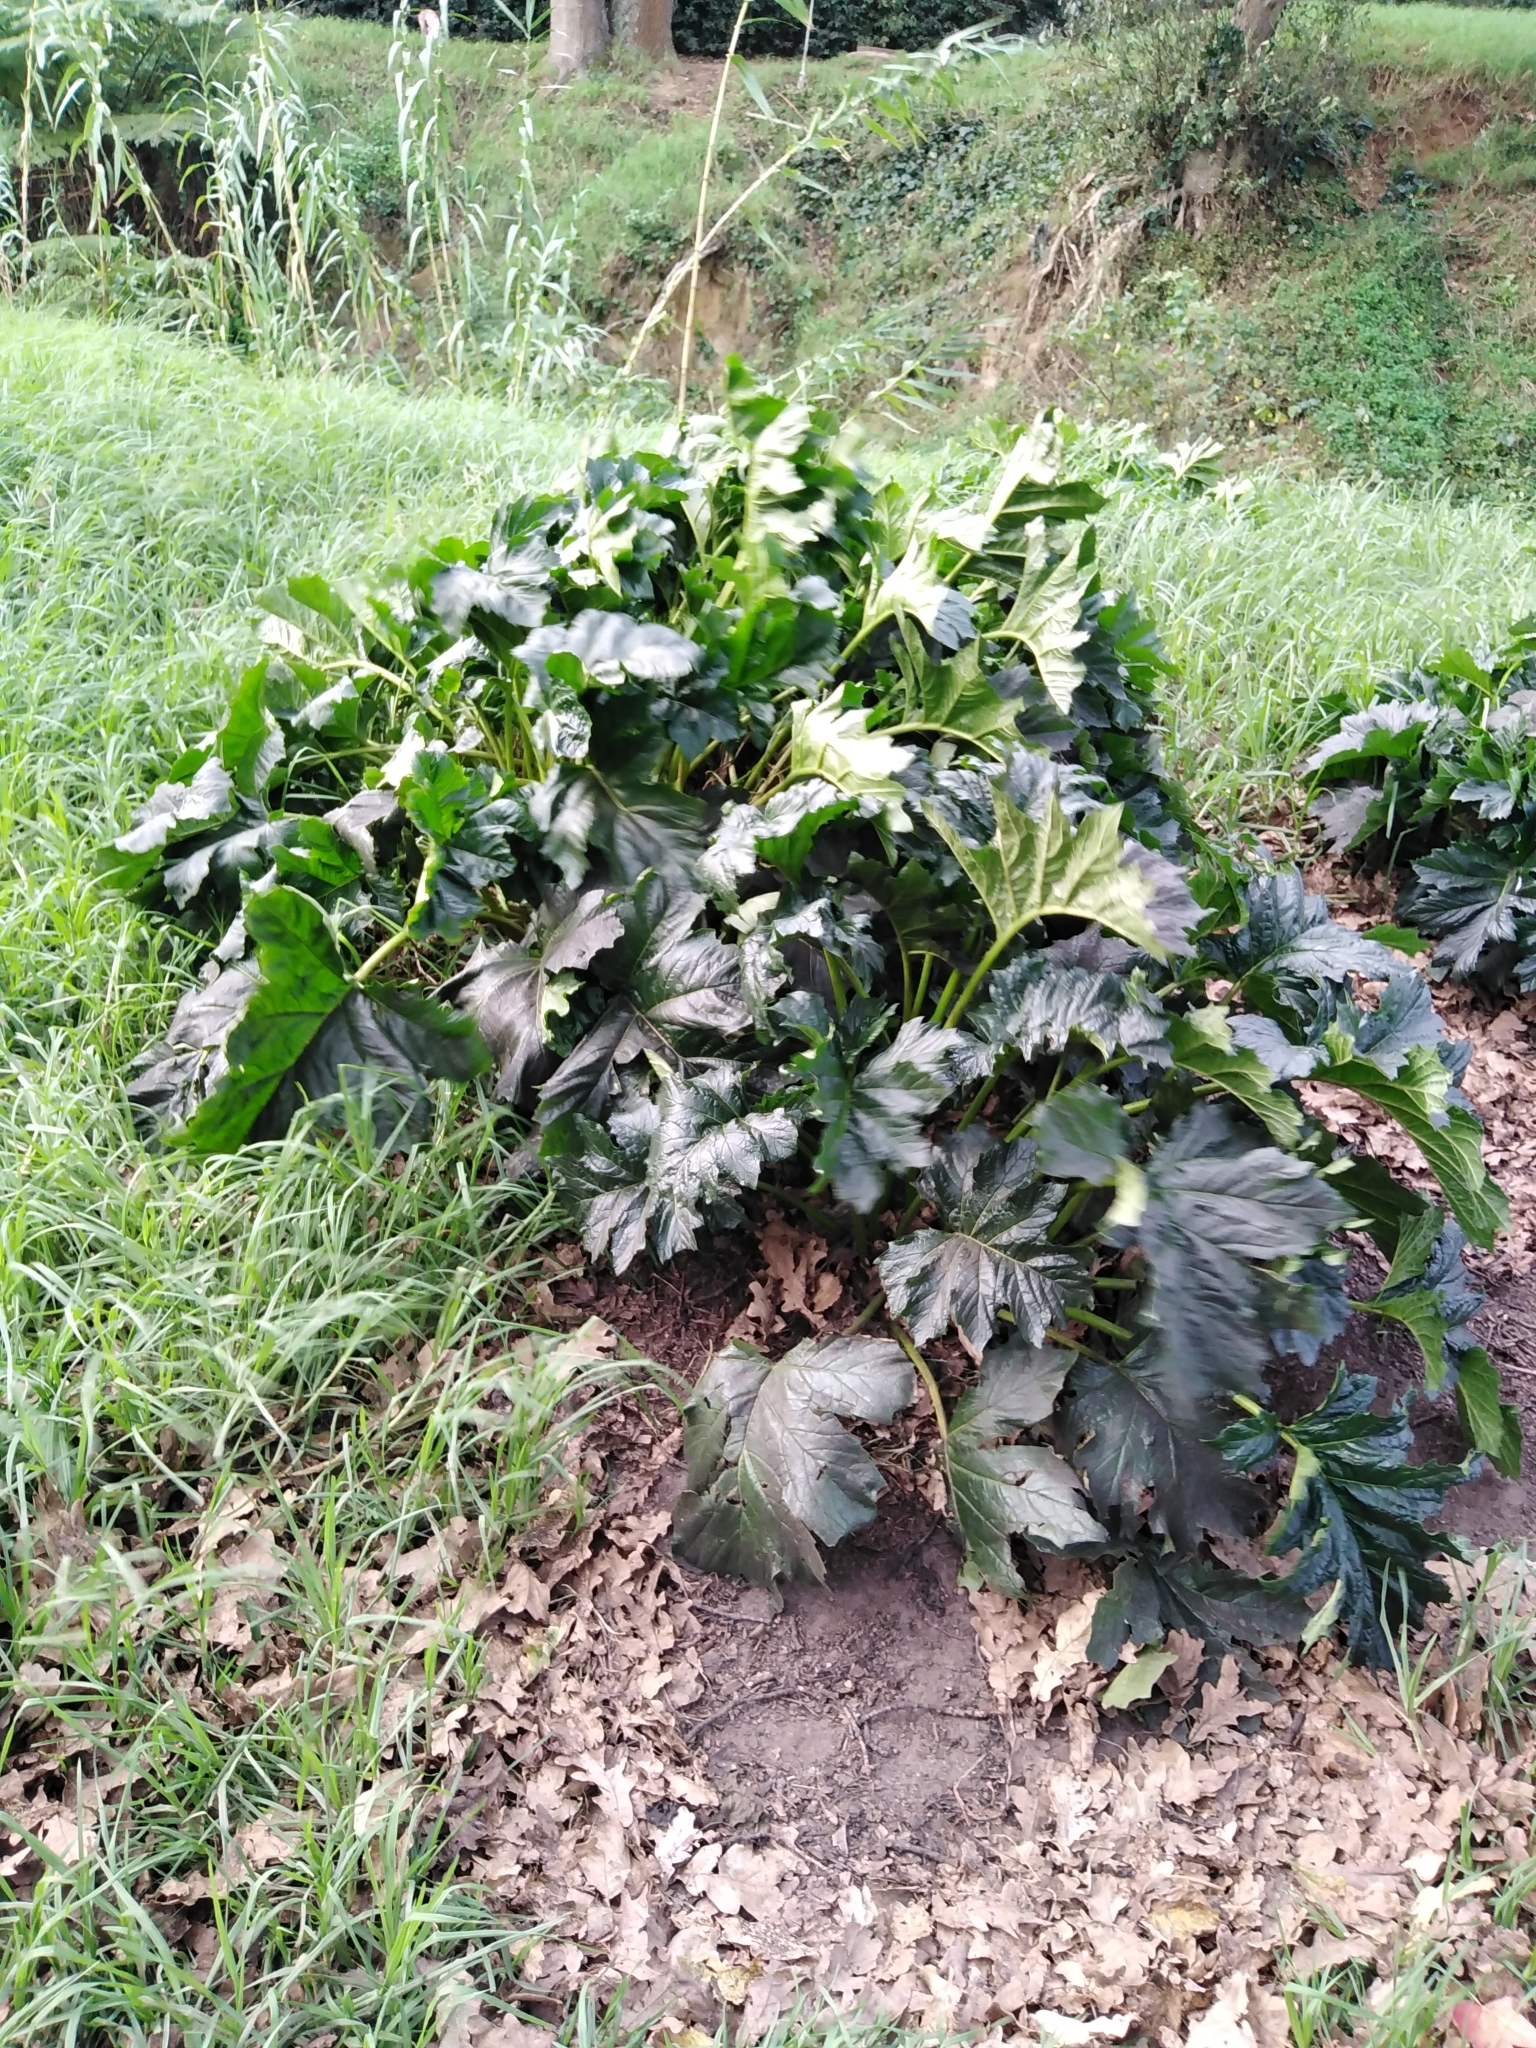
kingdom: Plantae
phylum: Tracheophyta
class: Magnoliopsida
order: Lamiales
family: Acanthaceae
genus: Acanthus
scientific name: Acanthus mollis
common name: Bear's-breech
